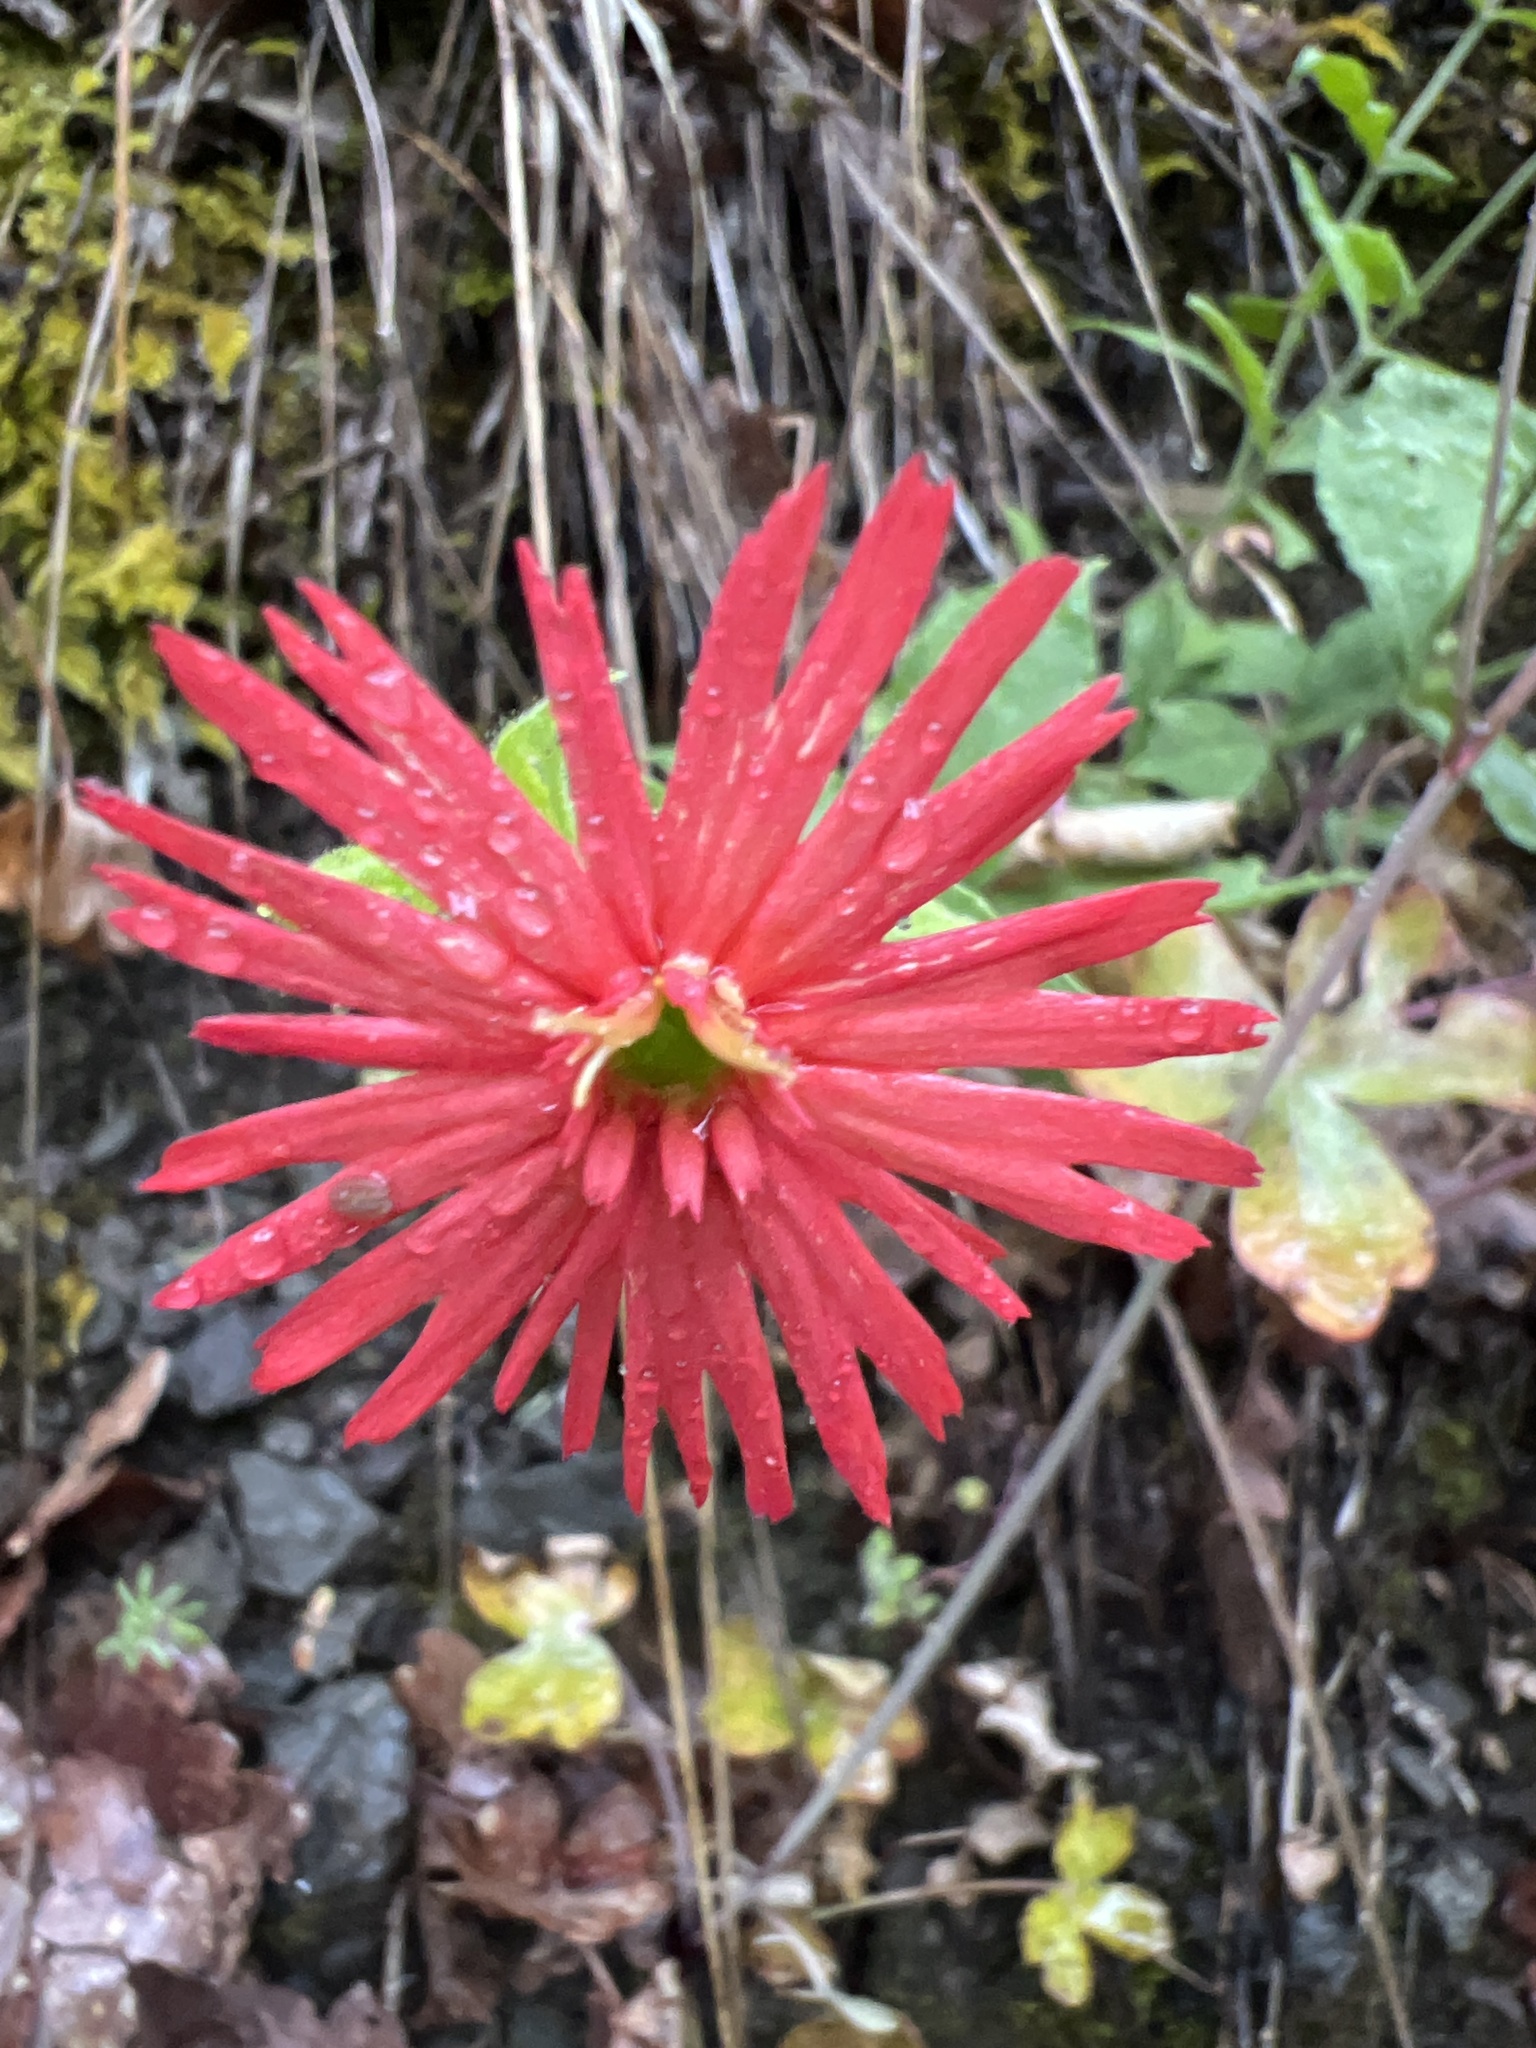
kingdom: Plantae
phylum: Tracheophyta
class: Magnoliopsida
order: Caryophyllales
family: Caryophyllaceae
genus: Silene
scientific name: Silene laciniata
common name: Indian-pink
